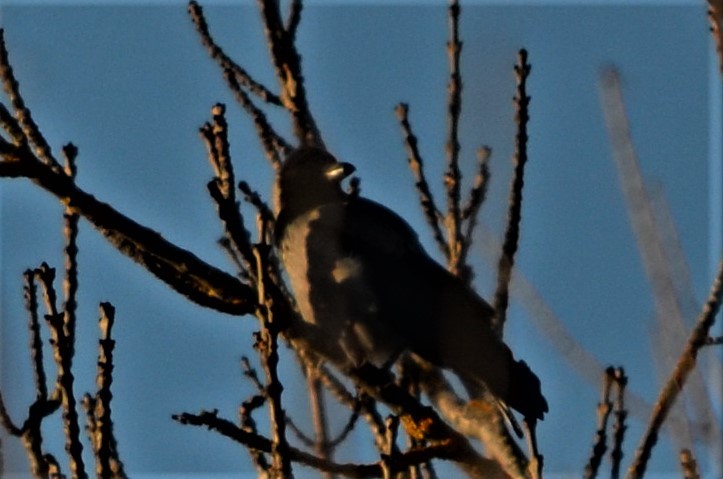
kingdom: Animalia
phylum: Chordata
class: Aves
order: Passeriformes
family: Corvidae
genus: Corvus
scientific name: Corvus cornix
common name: Hooded crow
